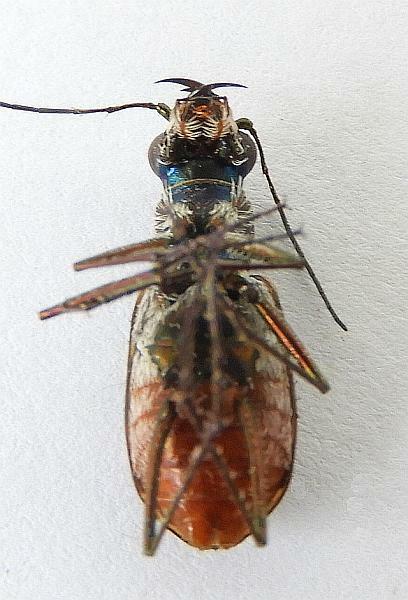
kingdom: Animalia
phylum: Arthropoda
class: Insecta
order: Coleoptera
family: Carabidae
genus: Cicindela
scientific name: Cicindela sedecimpunctata
